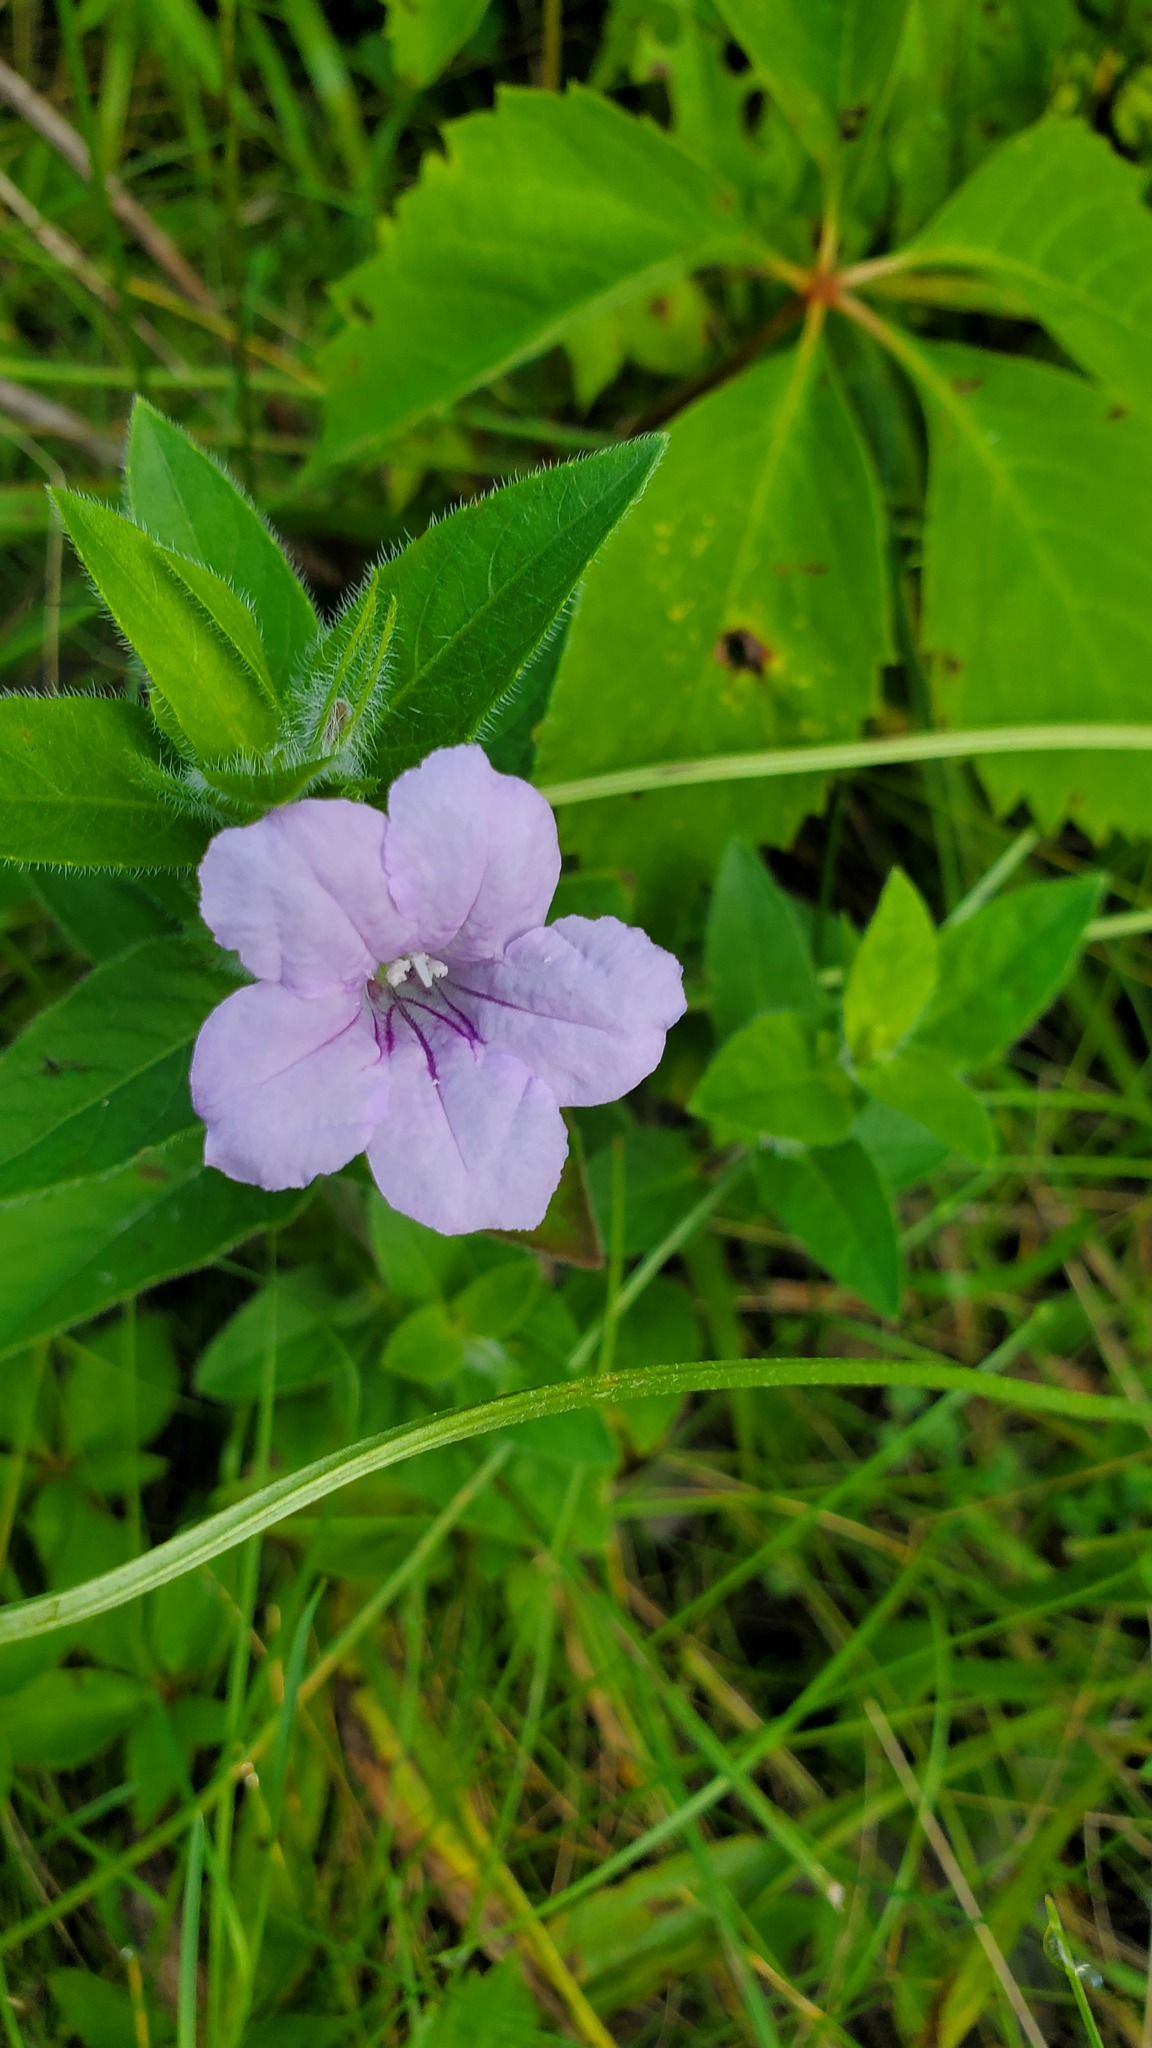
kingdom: Plantae
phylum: Tracheophyta
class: Magnoliopsida
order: Lamiales
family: Acanthaceae
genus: Ruellia
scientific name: Ruellia humilis
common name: Fringe-leaf ruellia
